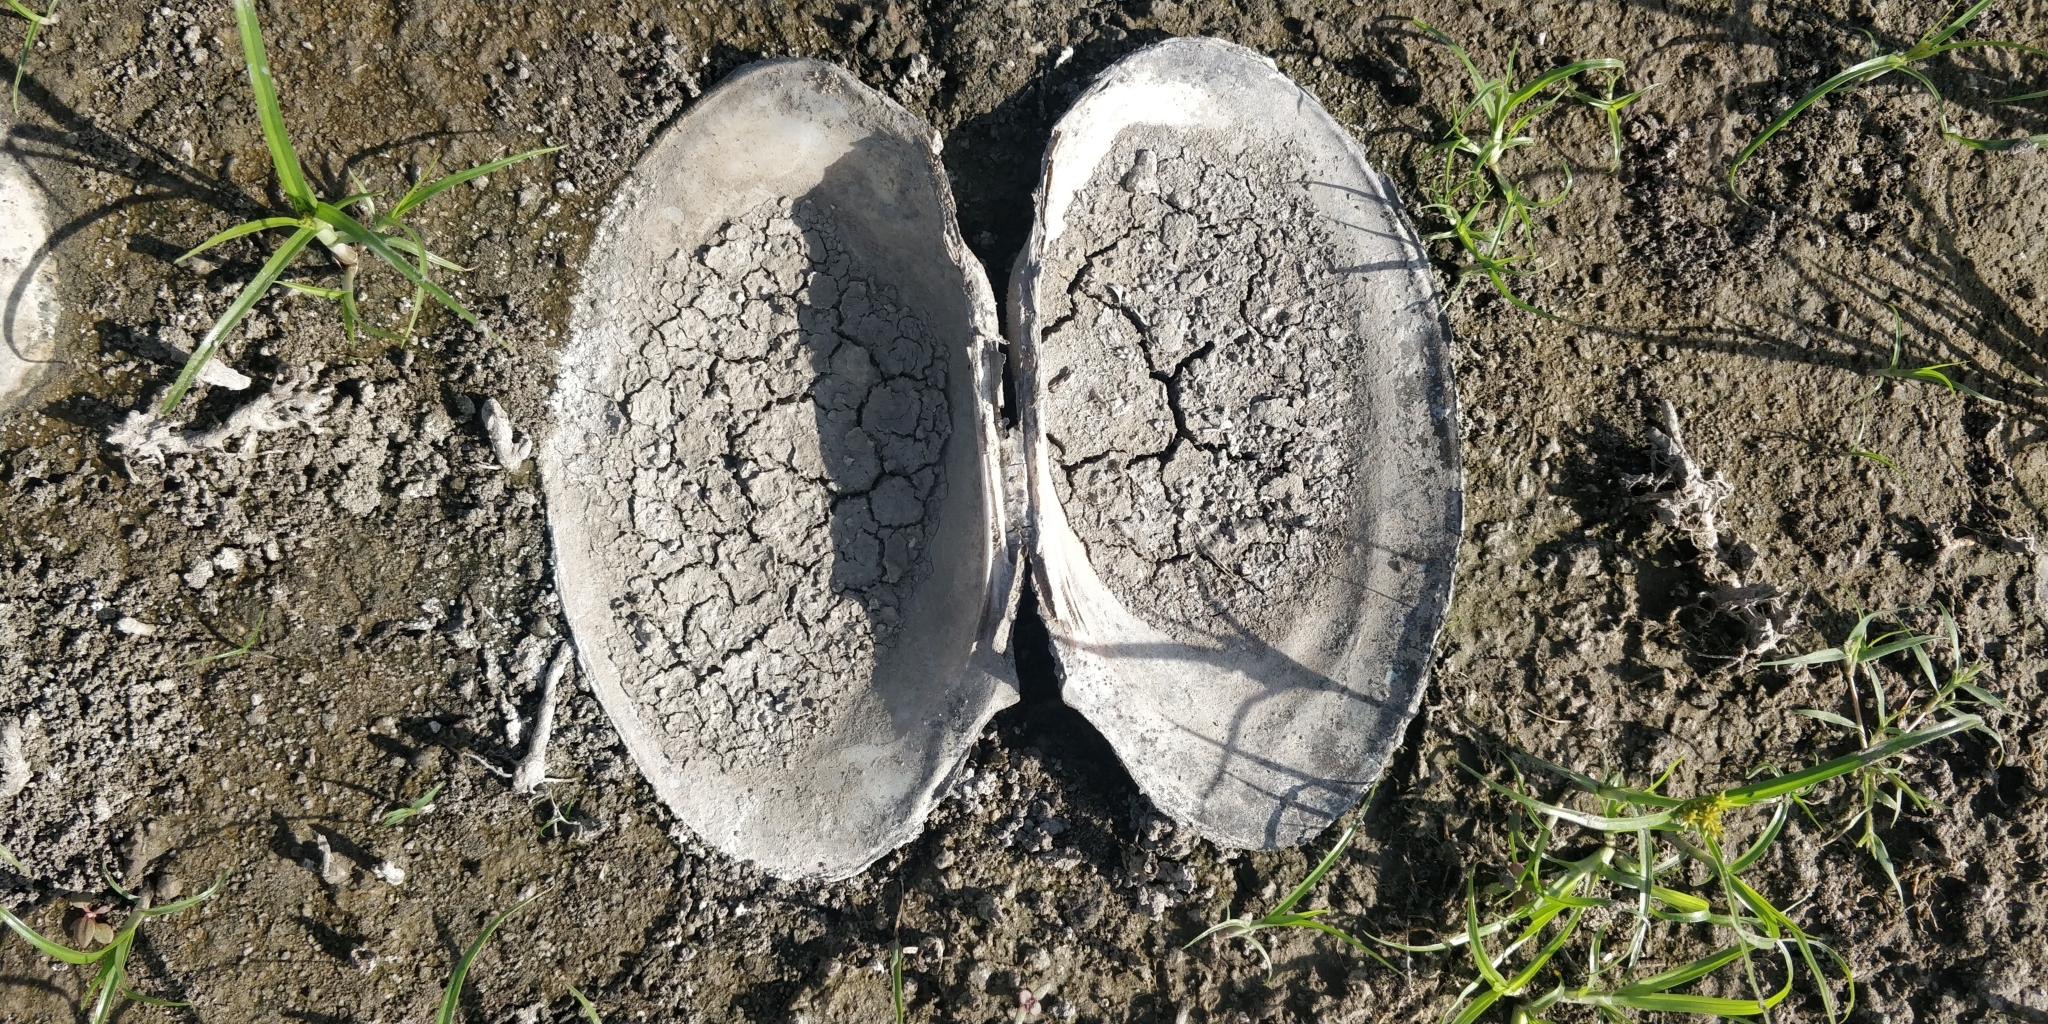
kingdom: Animalia
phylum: Mollusca
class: Bivalvia
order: Unionida
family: Unionidae
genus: Potamilus
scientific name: Potamilus fragilis
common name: Fragile papershell
